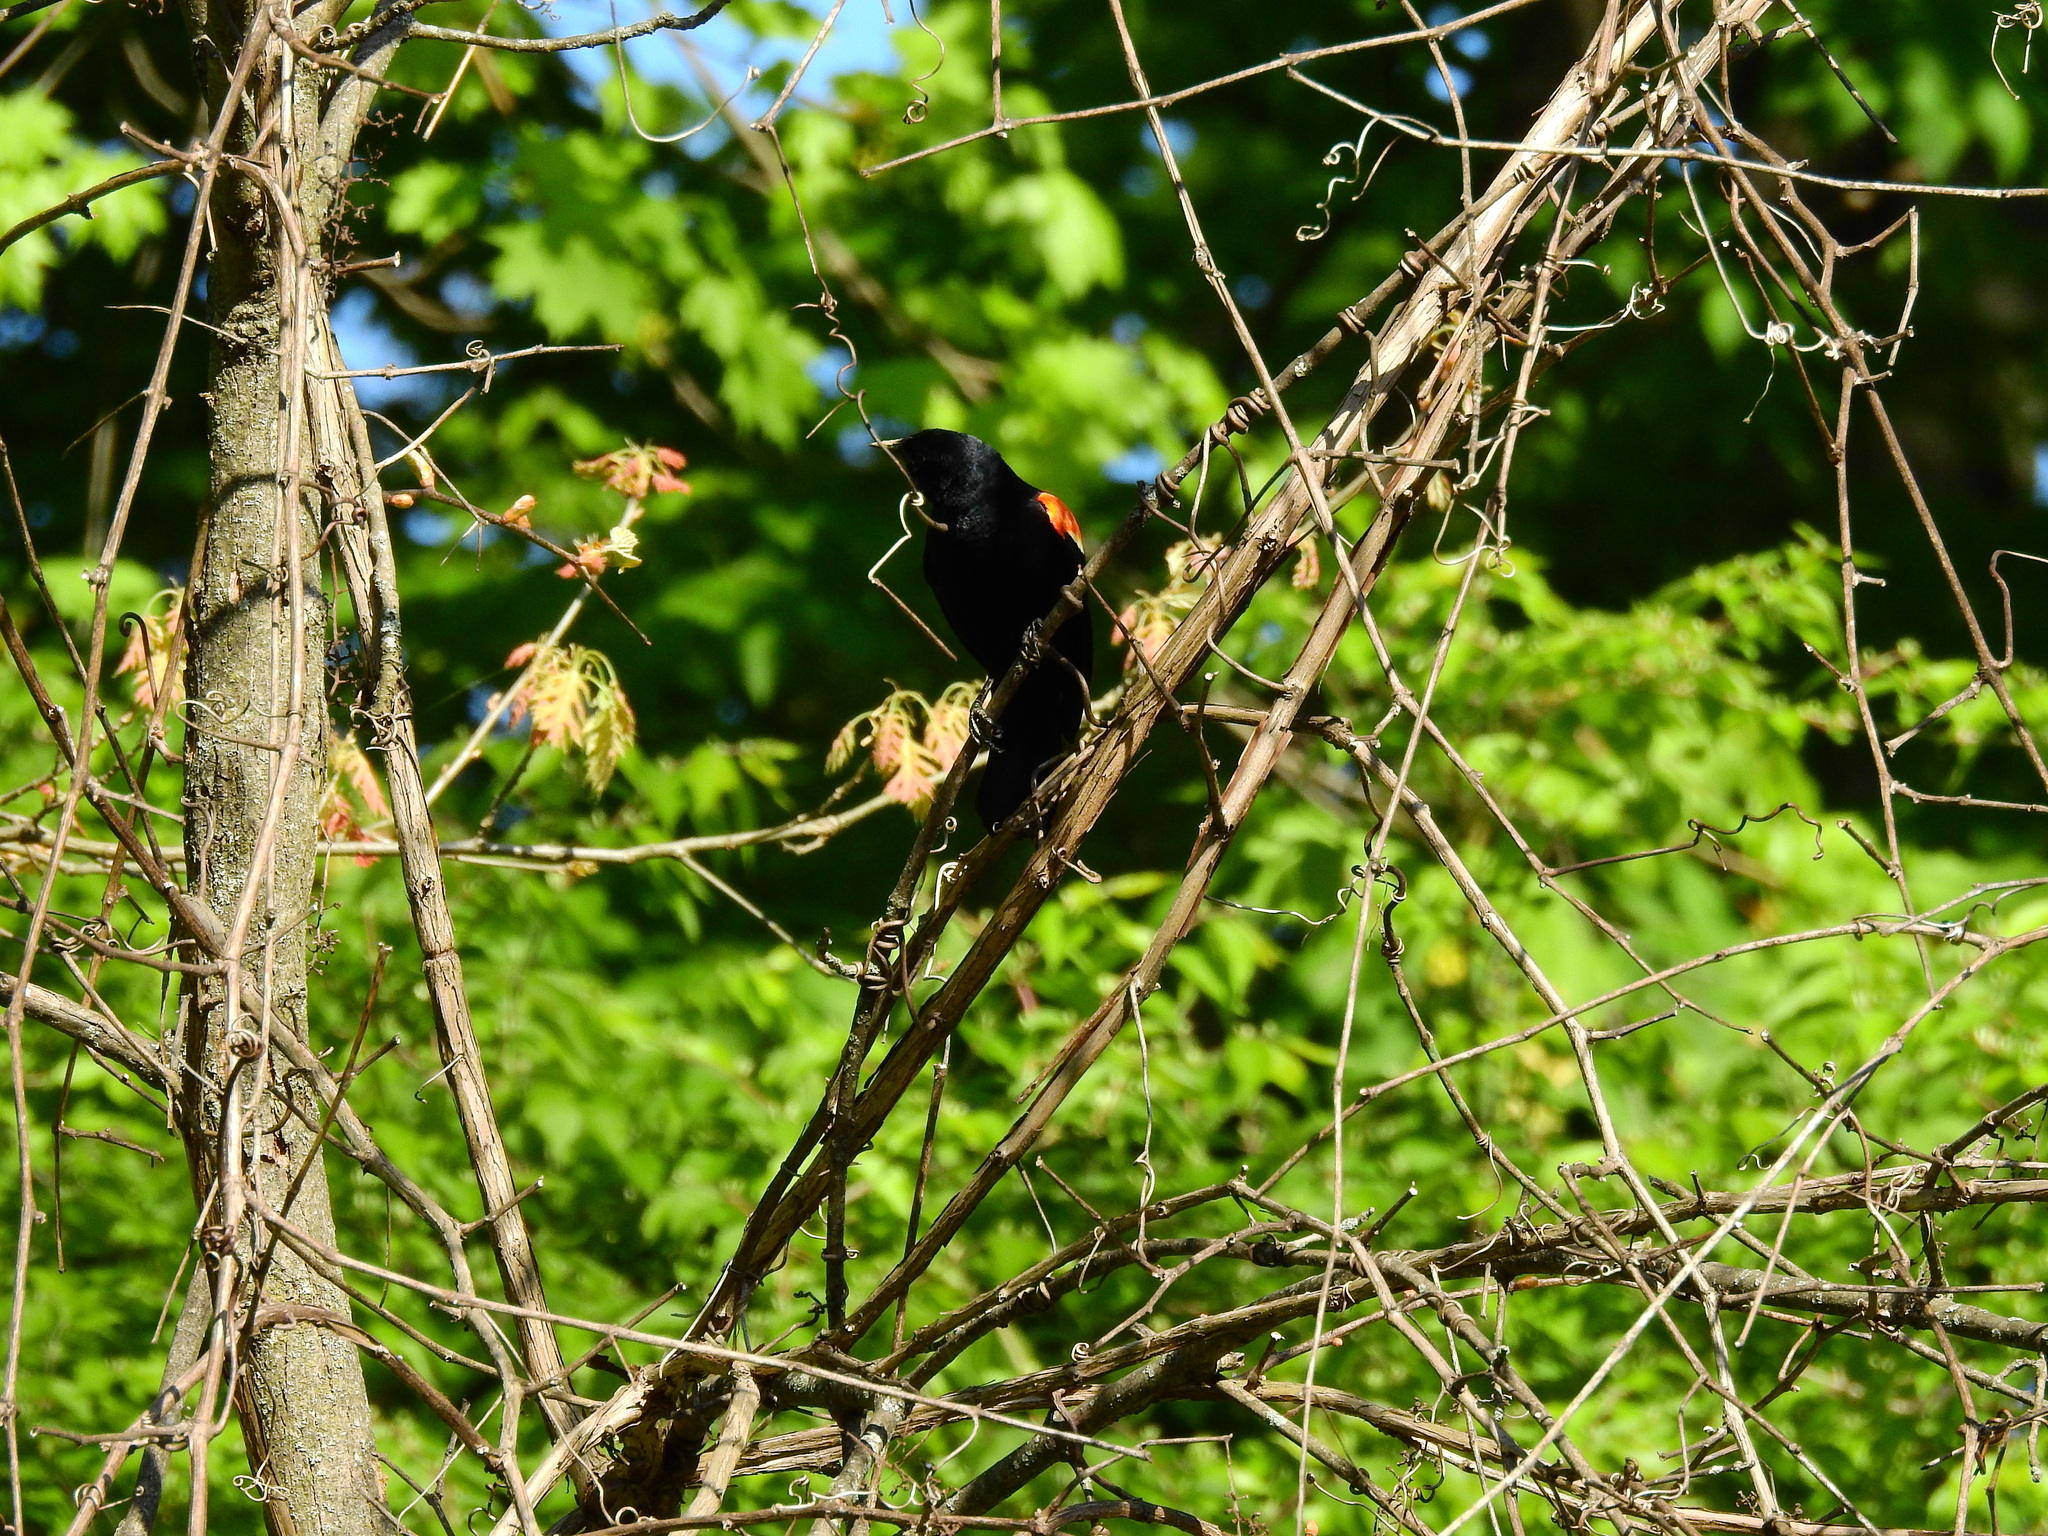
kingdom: Animalia
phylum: Chordata
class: Aves
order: Passeriformes
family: Icteridae
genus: Agelaius
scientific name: Agelaius phoeniceus
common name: Red-winged blackbird
